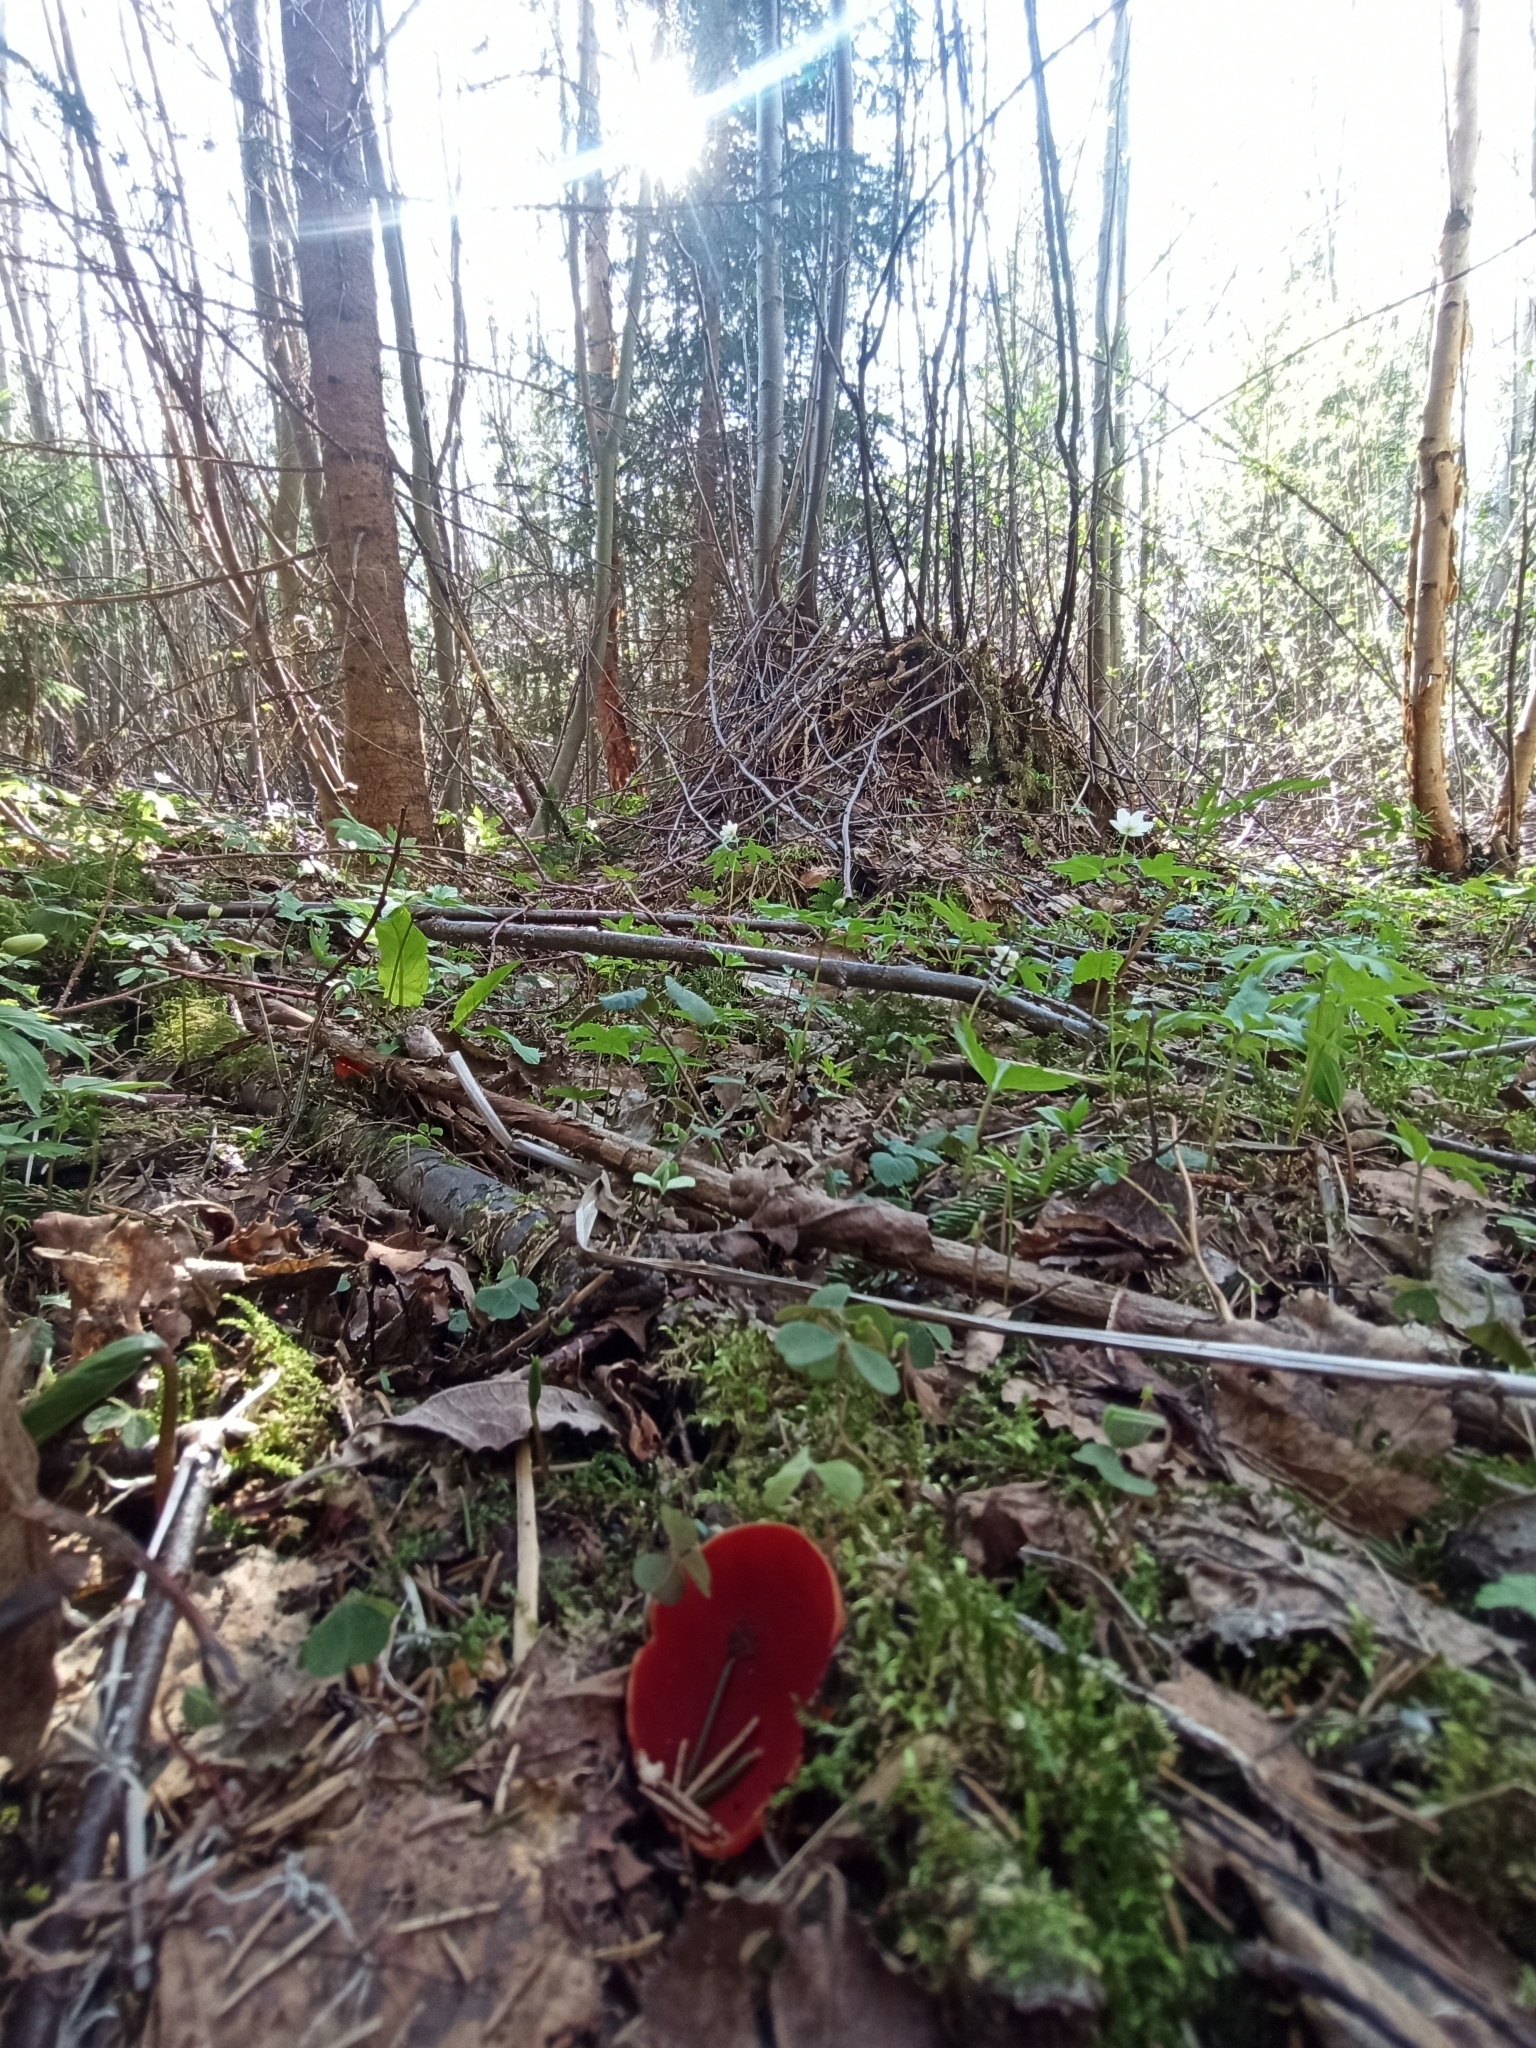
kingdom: Fungi
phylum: Ascomycota
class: Pezizomycetes
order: Pezizales
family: Sarcoscyphaceae
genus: Sarcoscypha
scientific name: Sarcoscypha austriaca
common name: Scarlet elfcup
